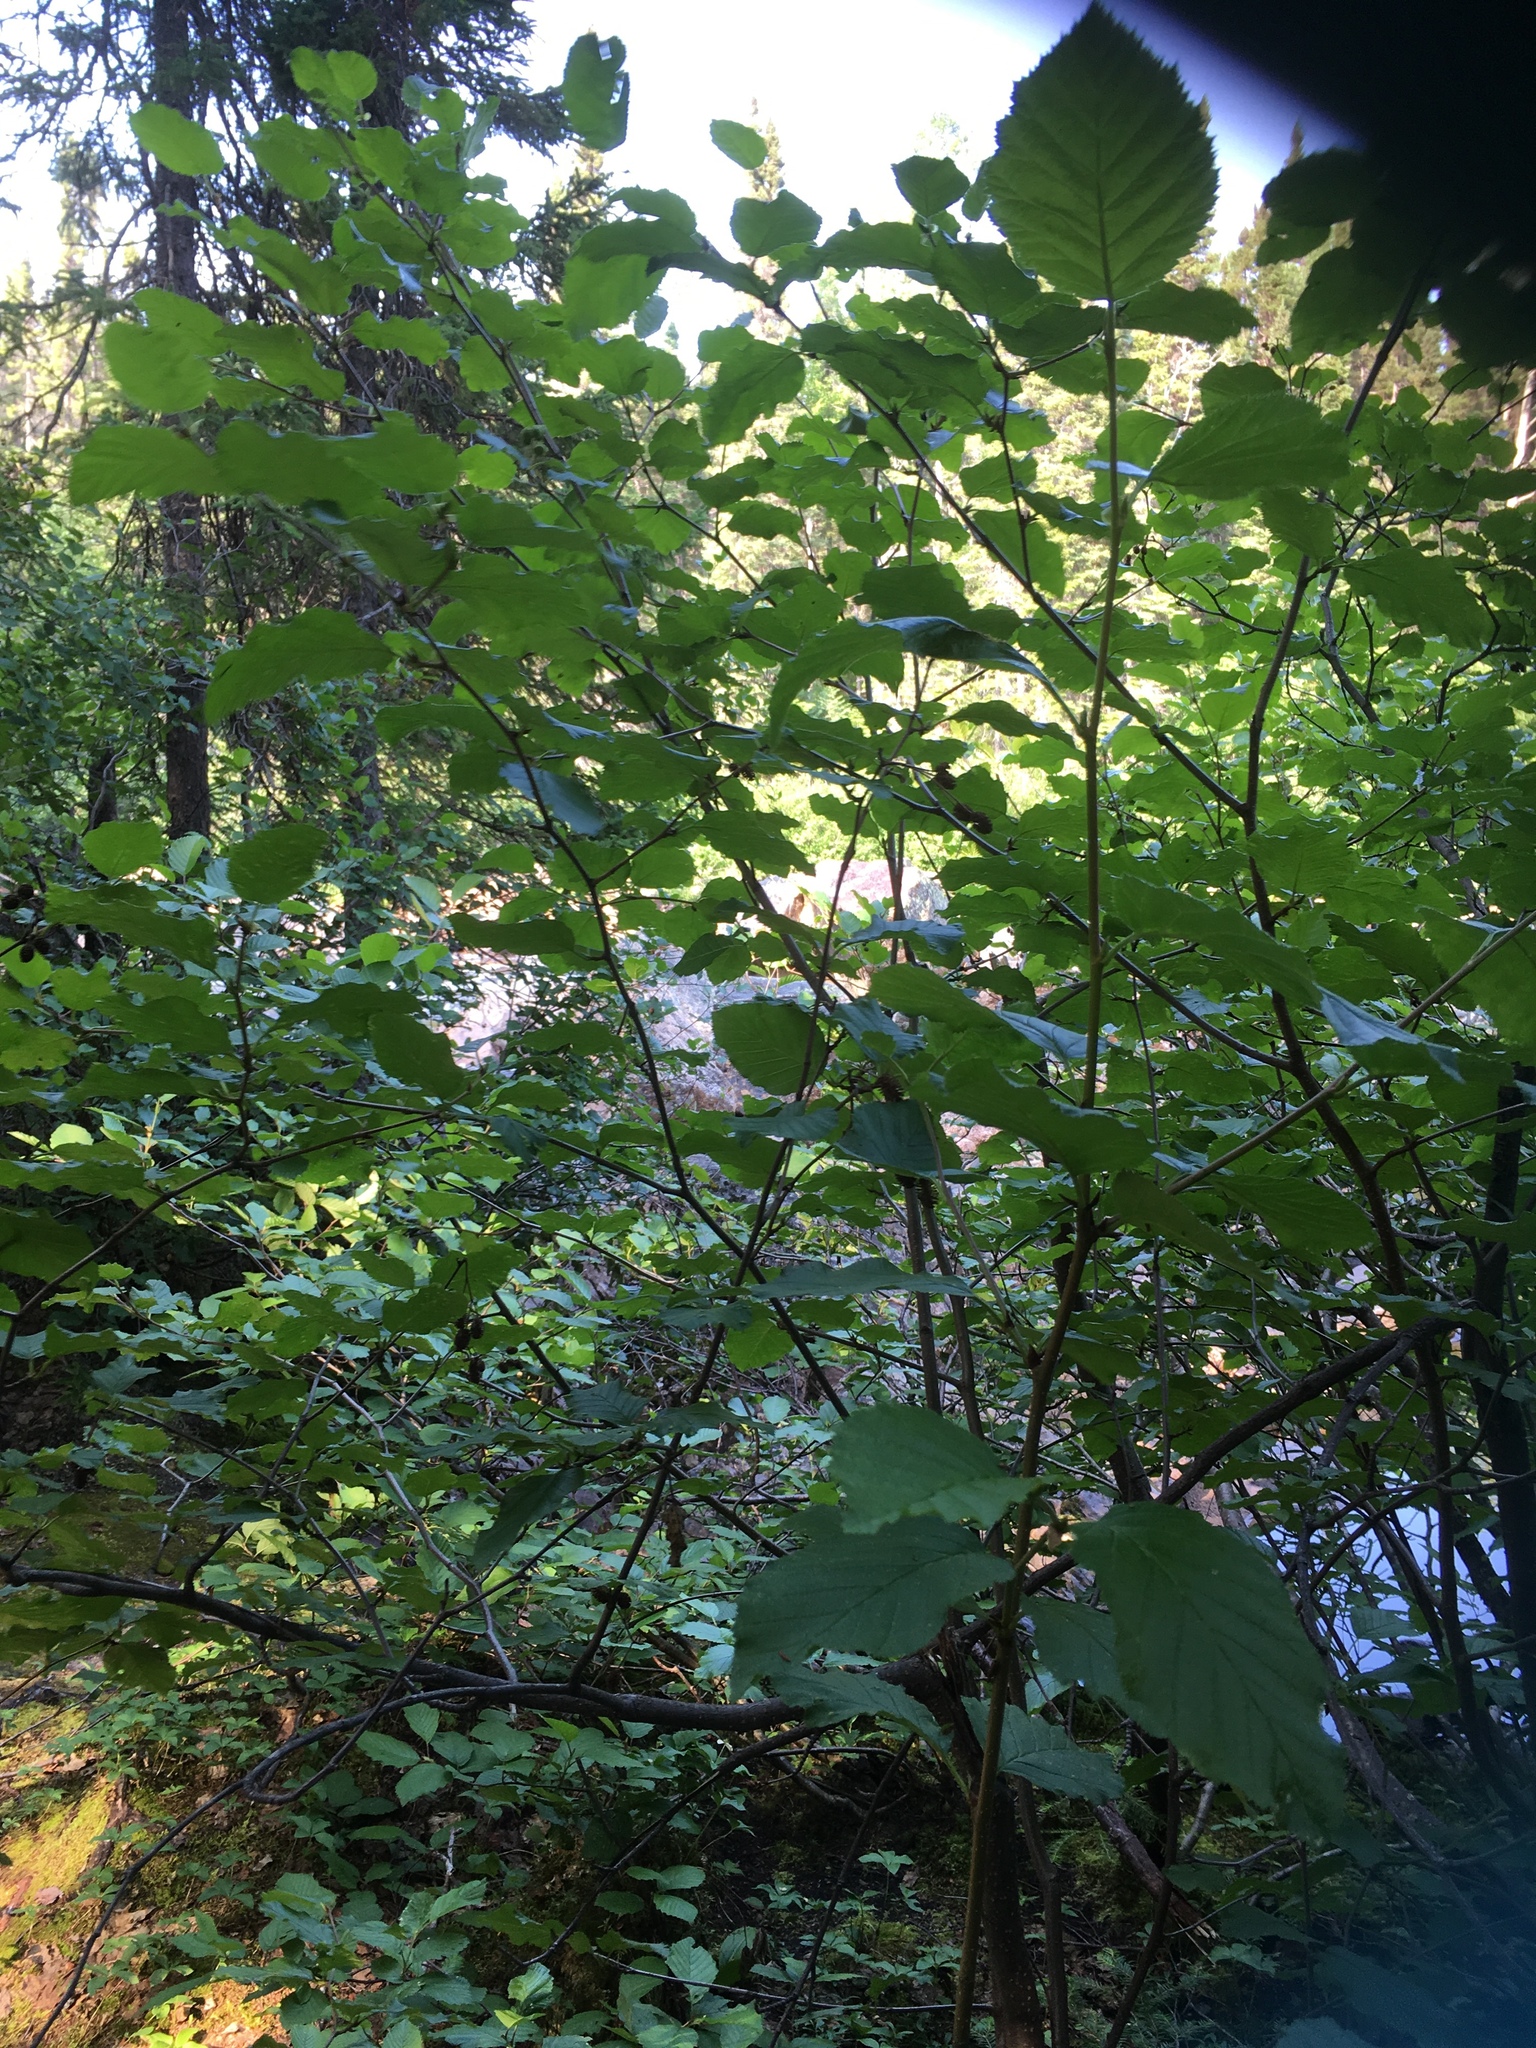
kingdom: Plantae
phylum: Tracheophyta
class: Magnoliopsida
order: Fagales
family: Betulaceae
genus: Alnus
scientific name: Alnus alnobetula
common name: Green alder
